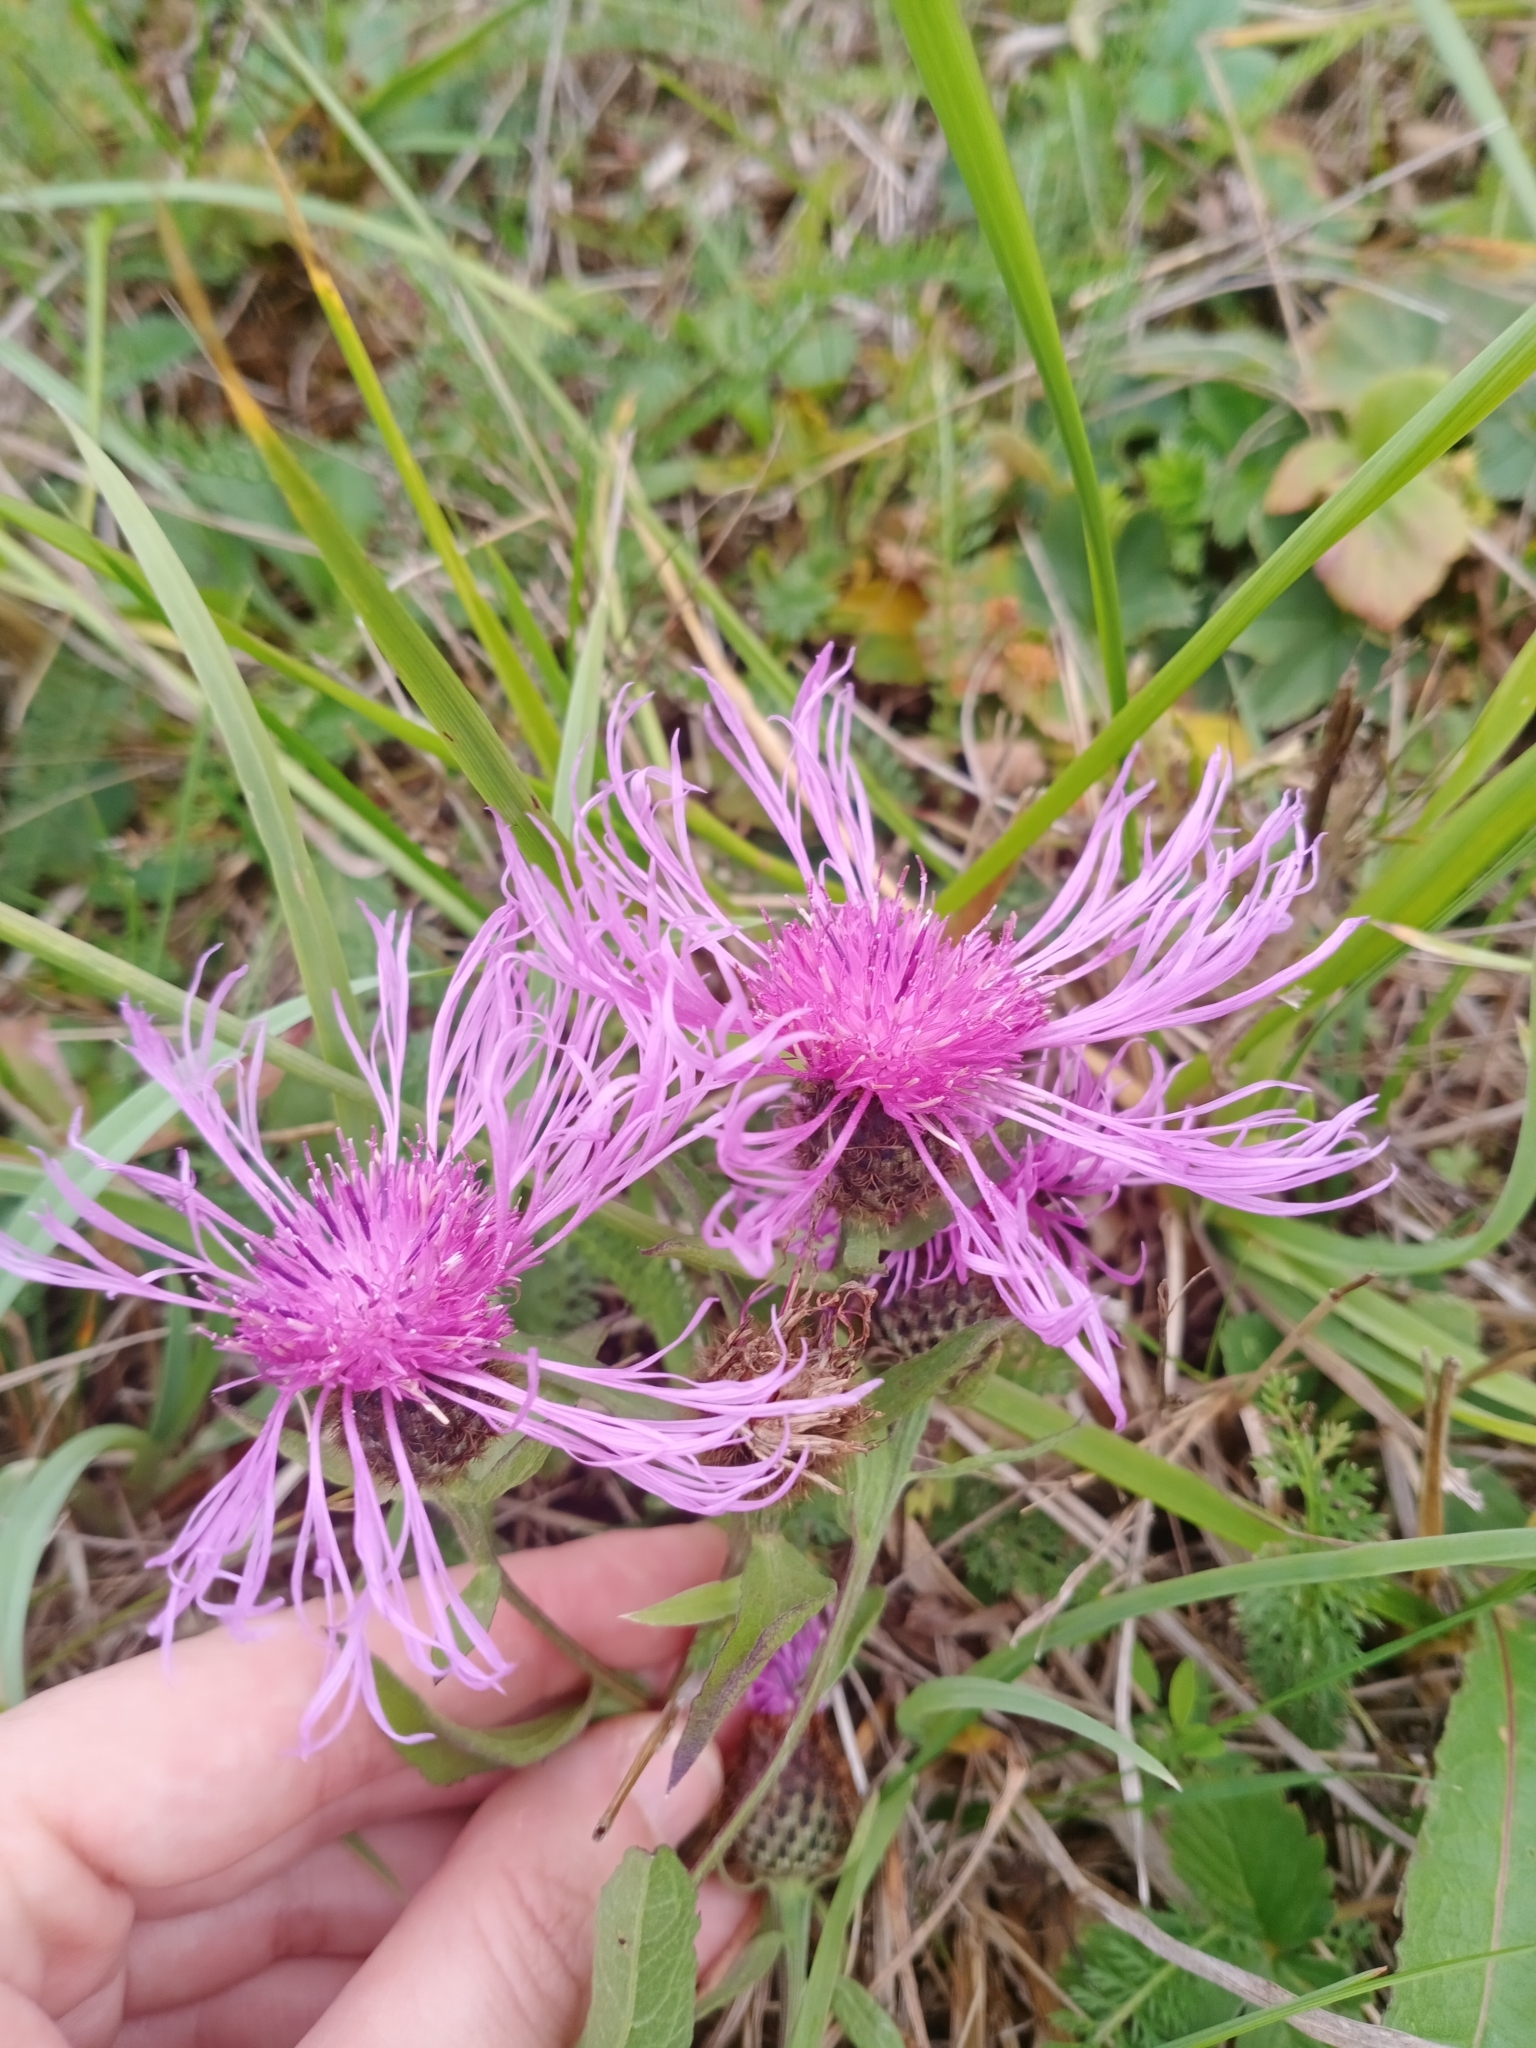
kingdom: Plantae
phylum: Tracheophyta
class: Magnoliopsida
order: Asterales
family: Asteraceae
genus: Centaurea
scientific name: Centaurea pseudophrygia
